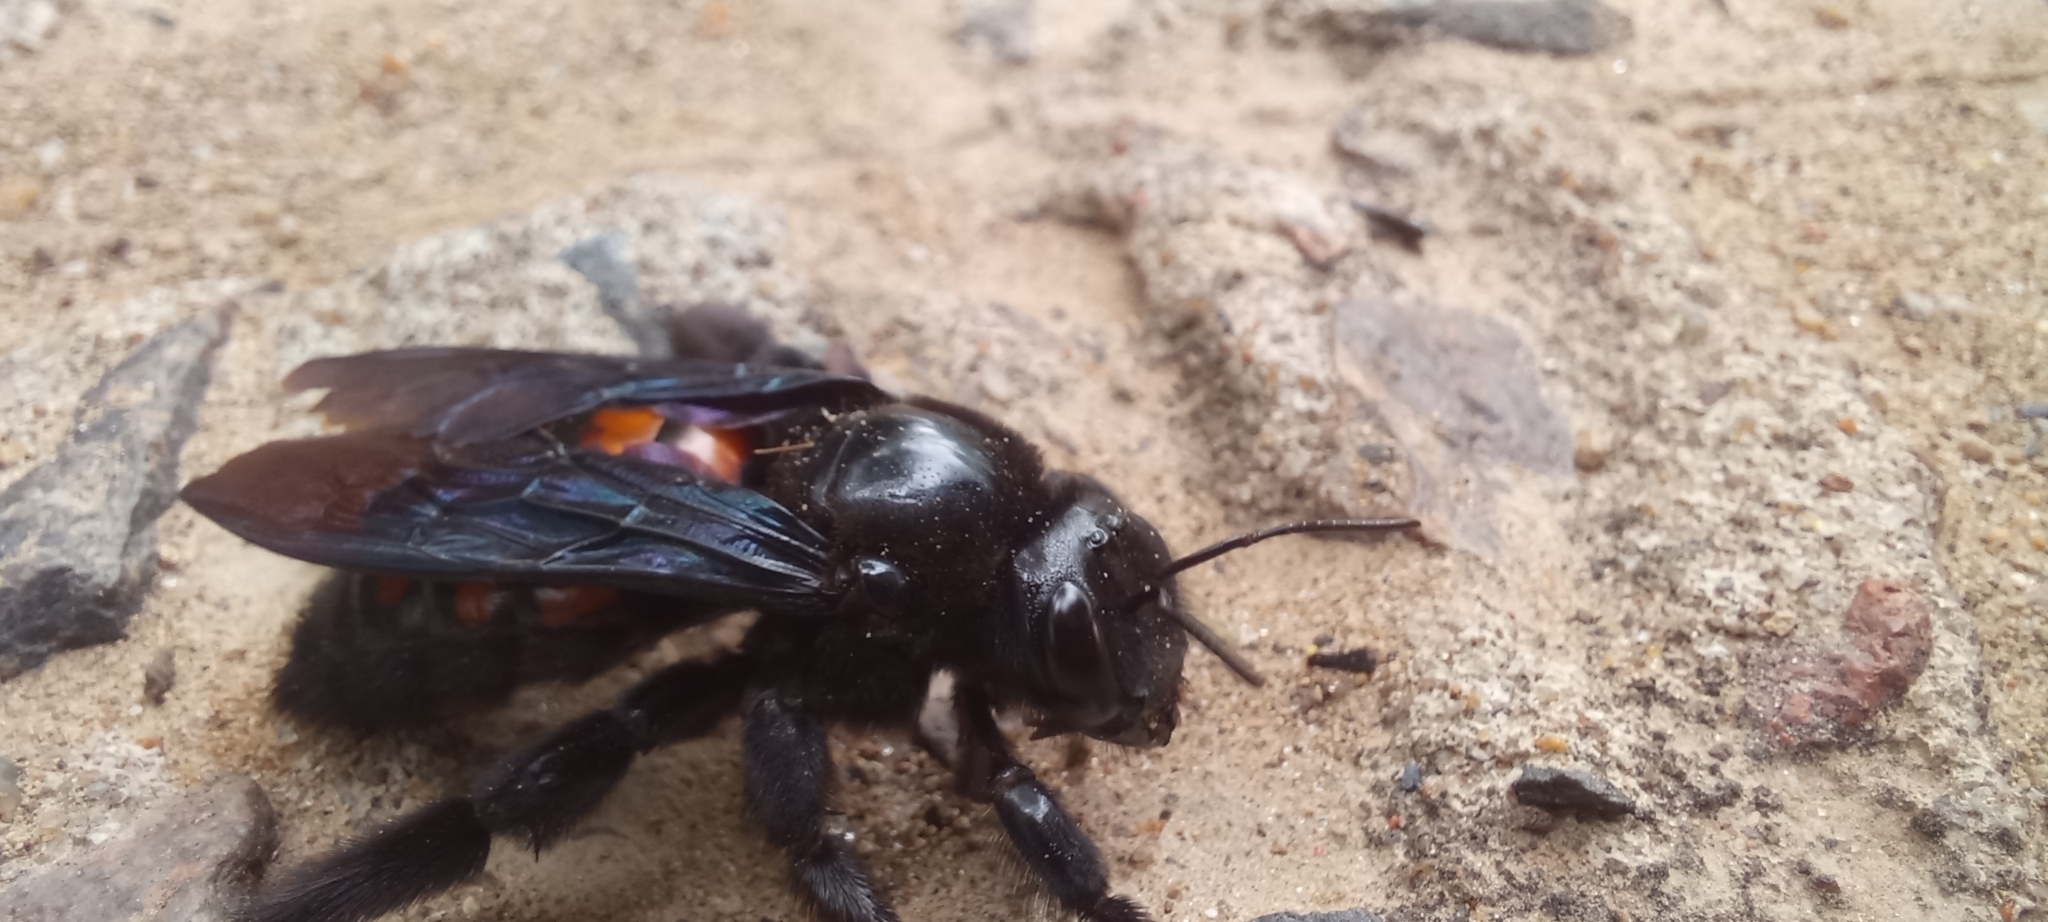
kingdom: Animalia
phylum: Arthropoda
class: Insecta
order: Hymenoptera
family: Apidae
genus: Xylocopa
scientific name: Xylocopa frontalis
